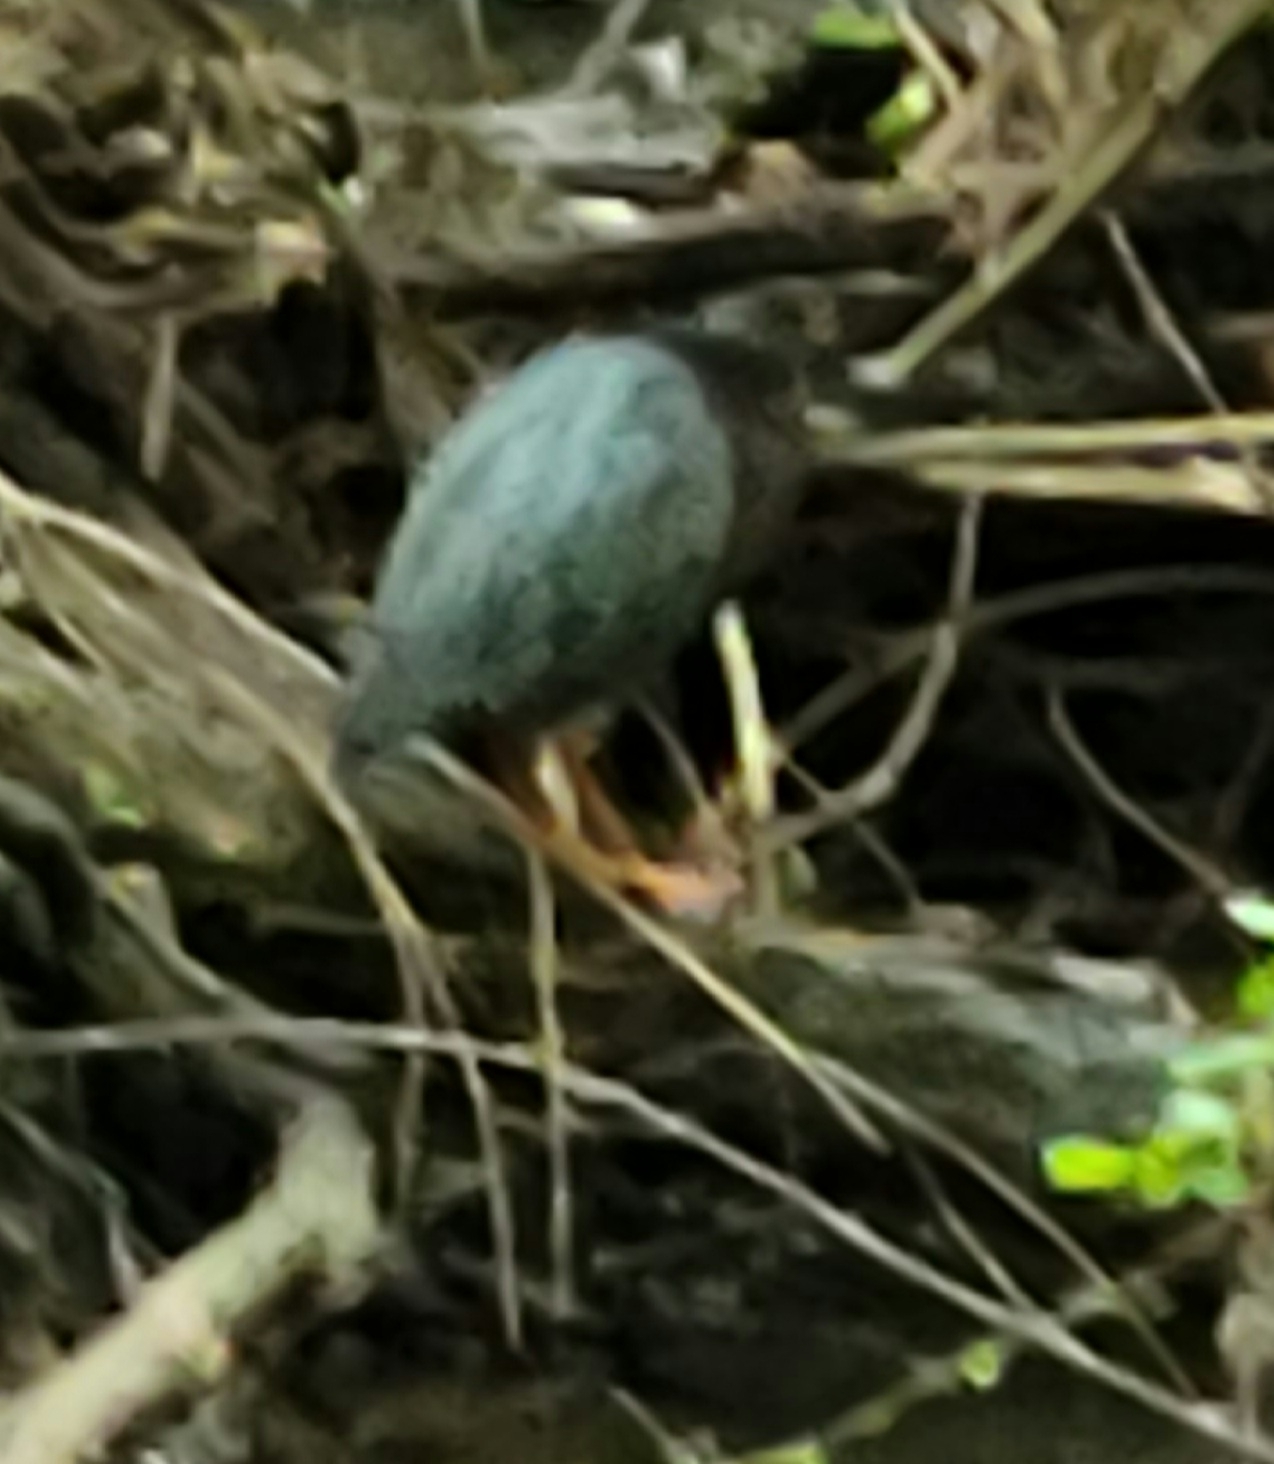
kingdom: Animalia
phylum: Chordata
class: Aves
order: Pelecaniformes
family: Ardeidae
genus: Butorides
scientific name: Butorides virescens
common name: Green heron
